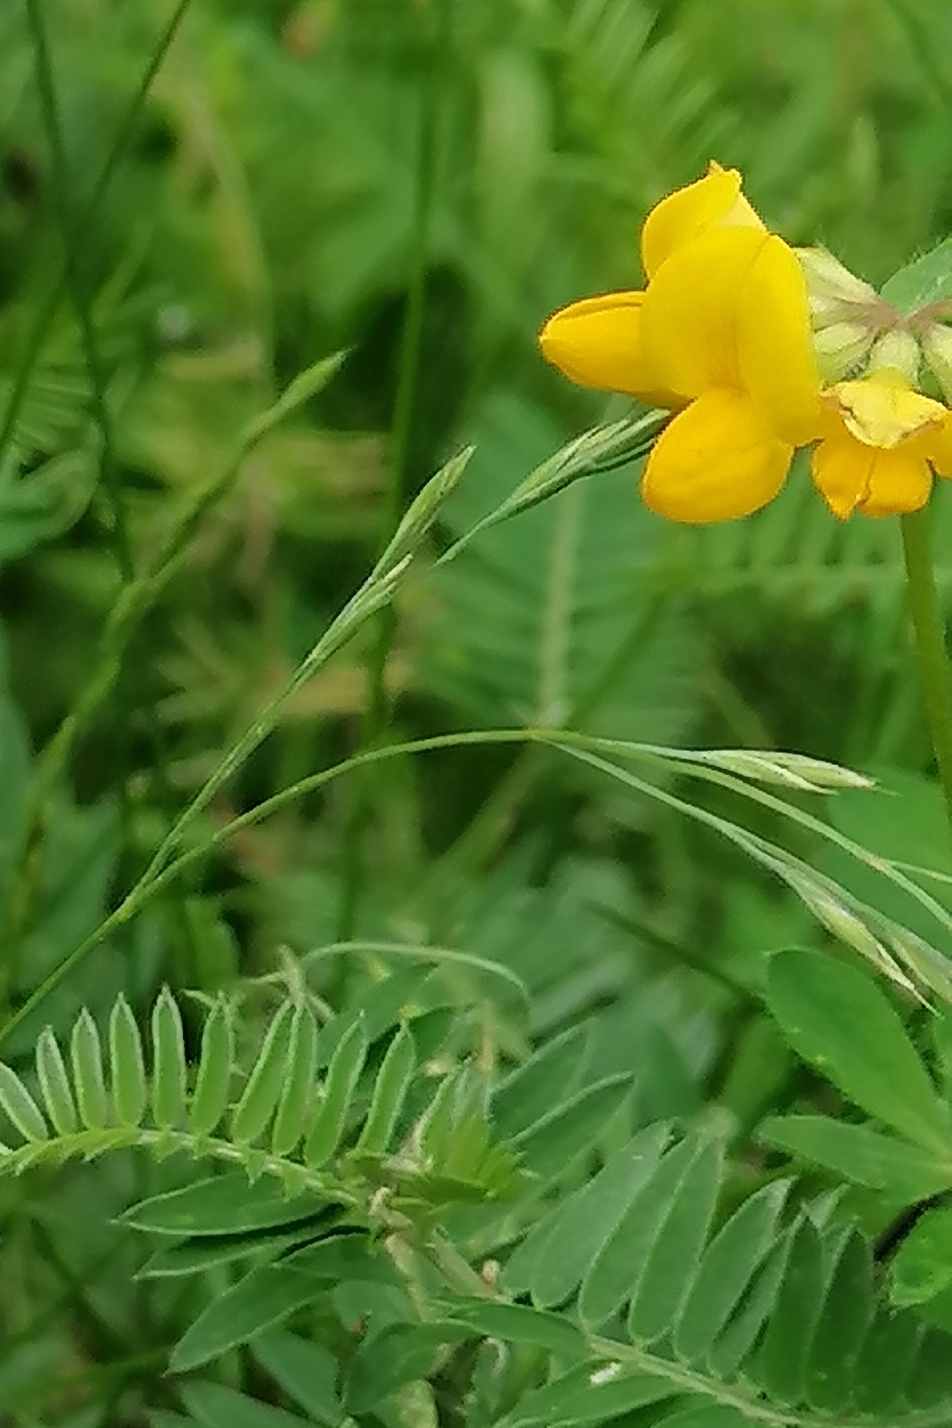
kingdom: Plantae
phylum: Tracheophyta
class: Magnoliopsida
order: Fabales
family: Fabaceae
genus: Lotus
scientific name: Lotus corniculatus
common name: Common bird's-foot-trefoil
